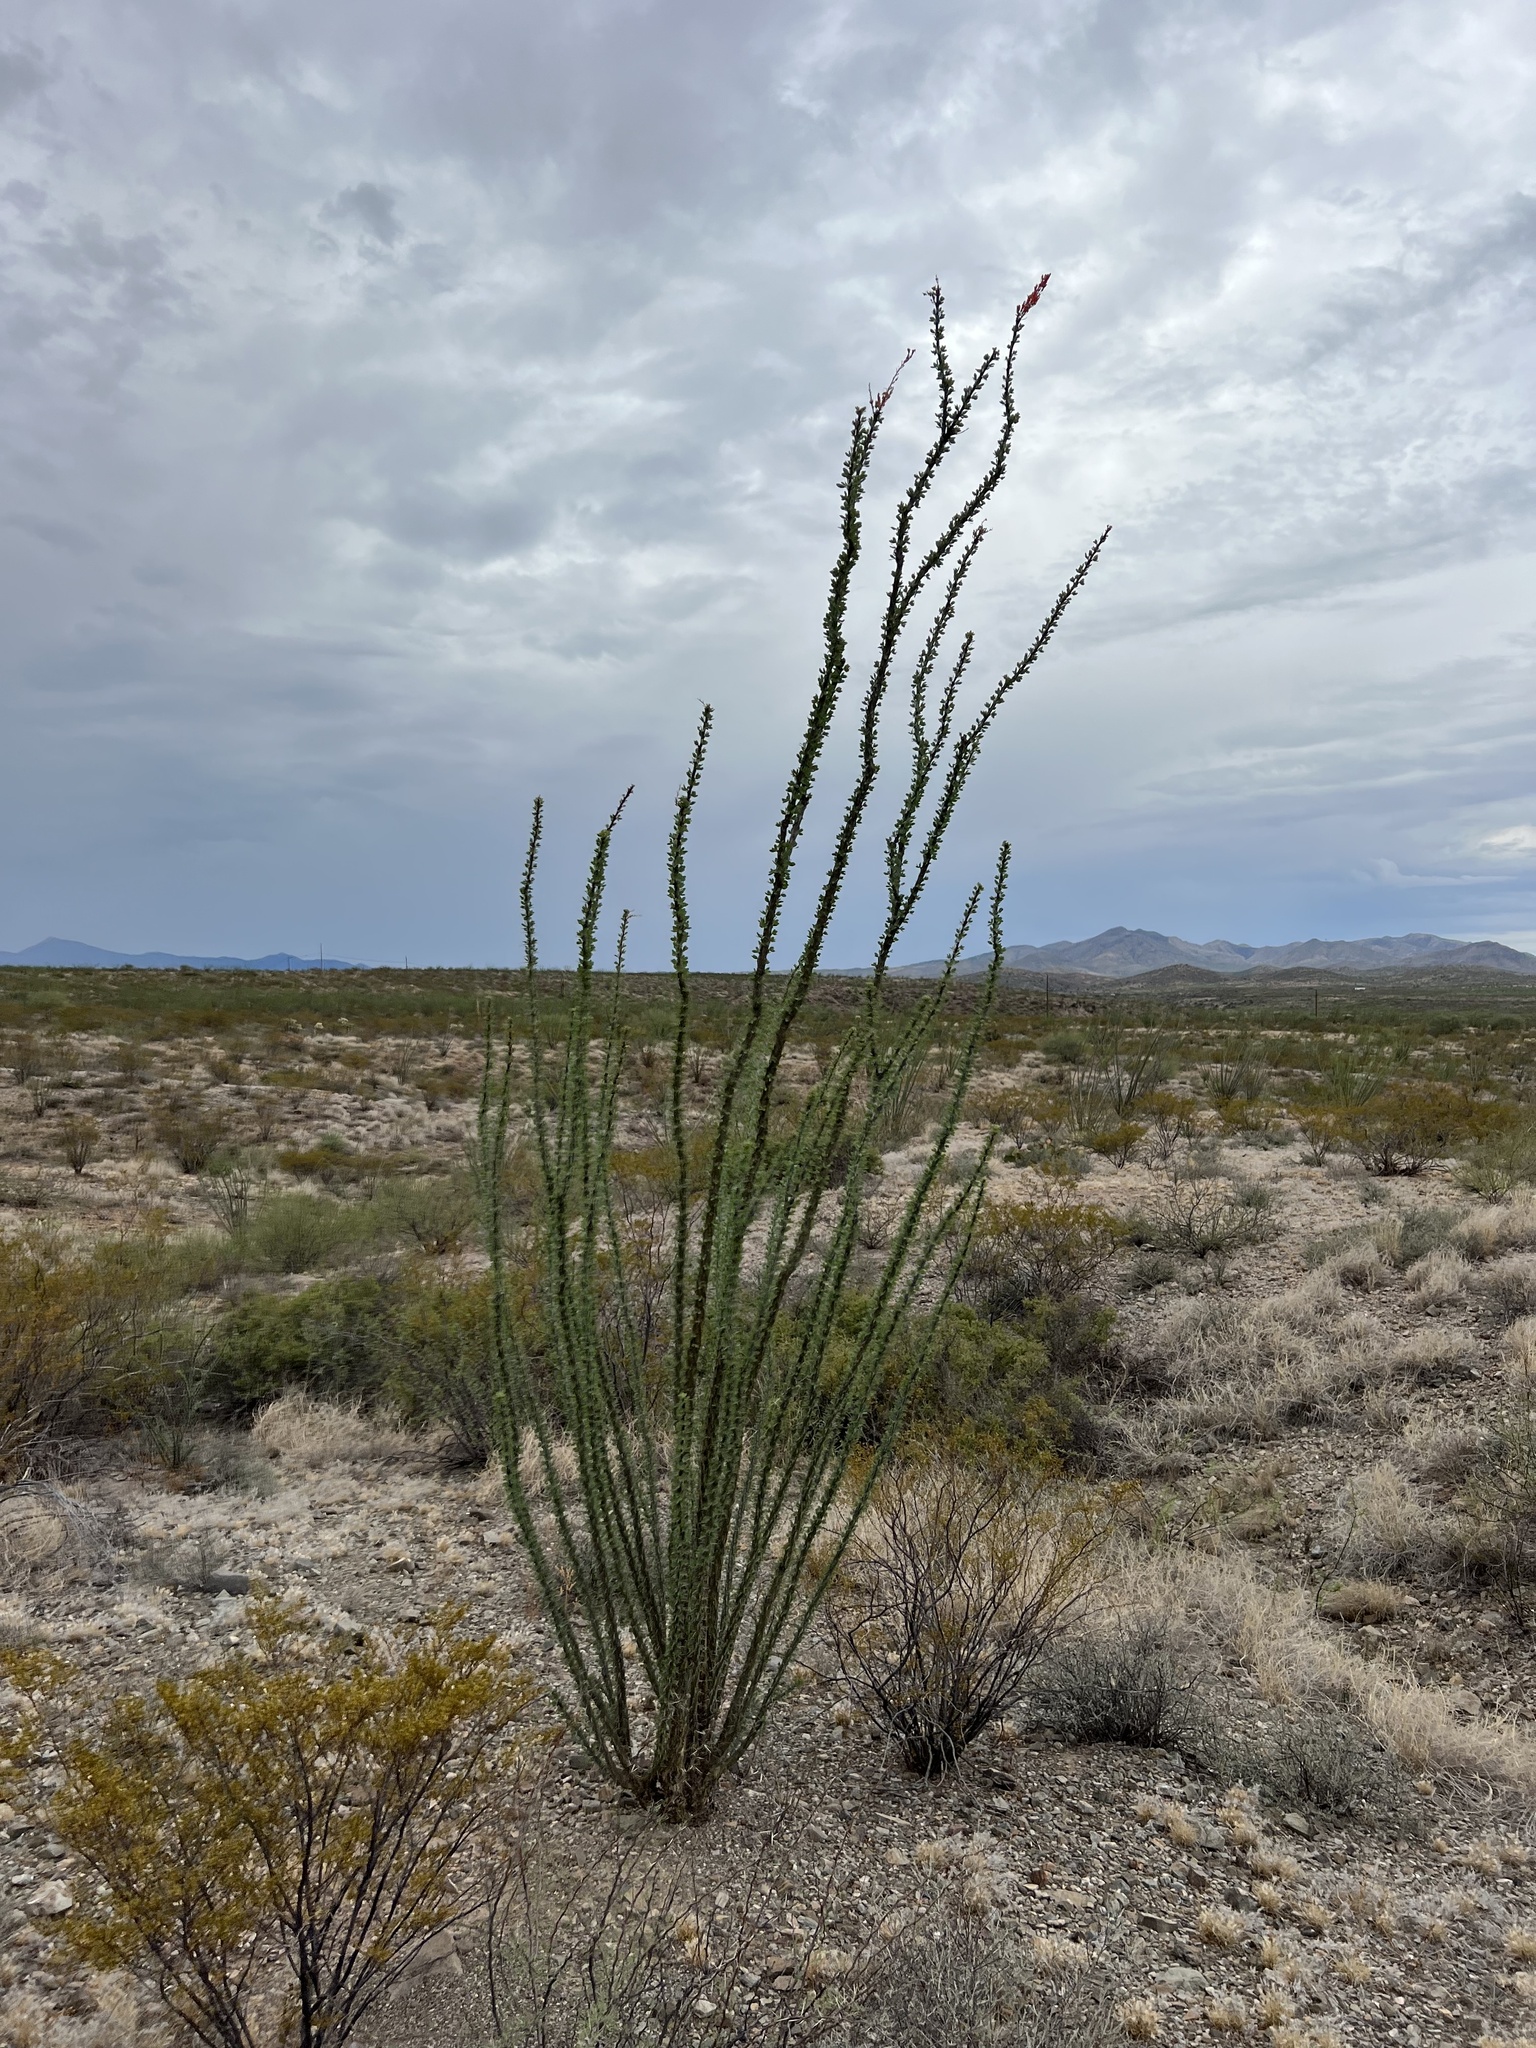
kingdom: Plantae
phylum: Tracheophyta
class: Magnoliopsida
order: Ericales
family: Fouquieriaceae
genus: Fouquieria
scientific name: Fouquieria splendens
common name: Vine-cactus
